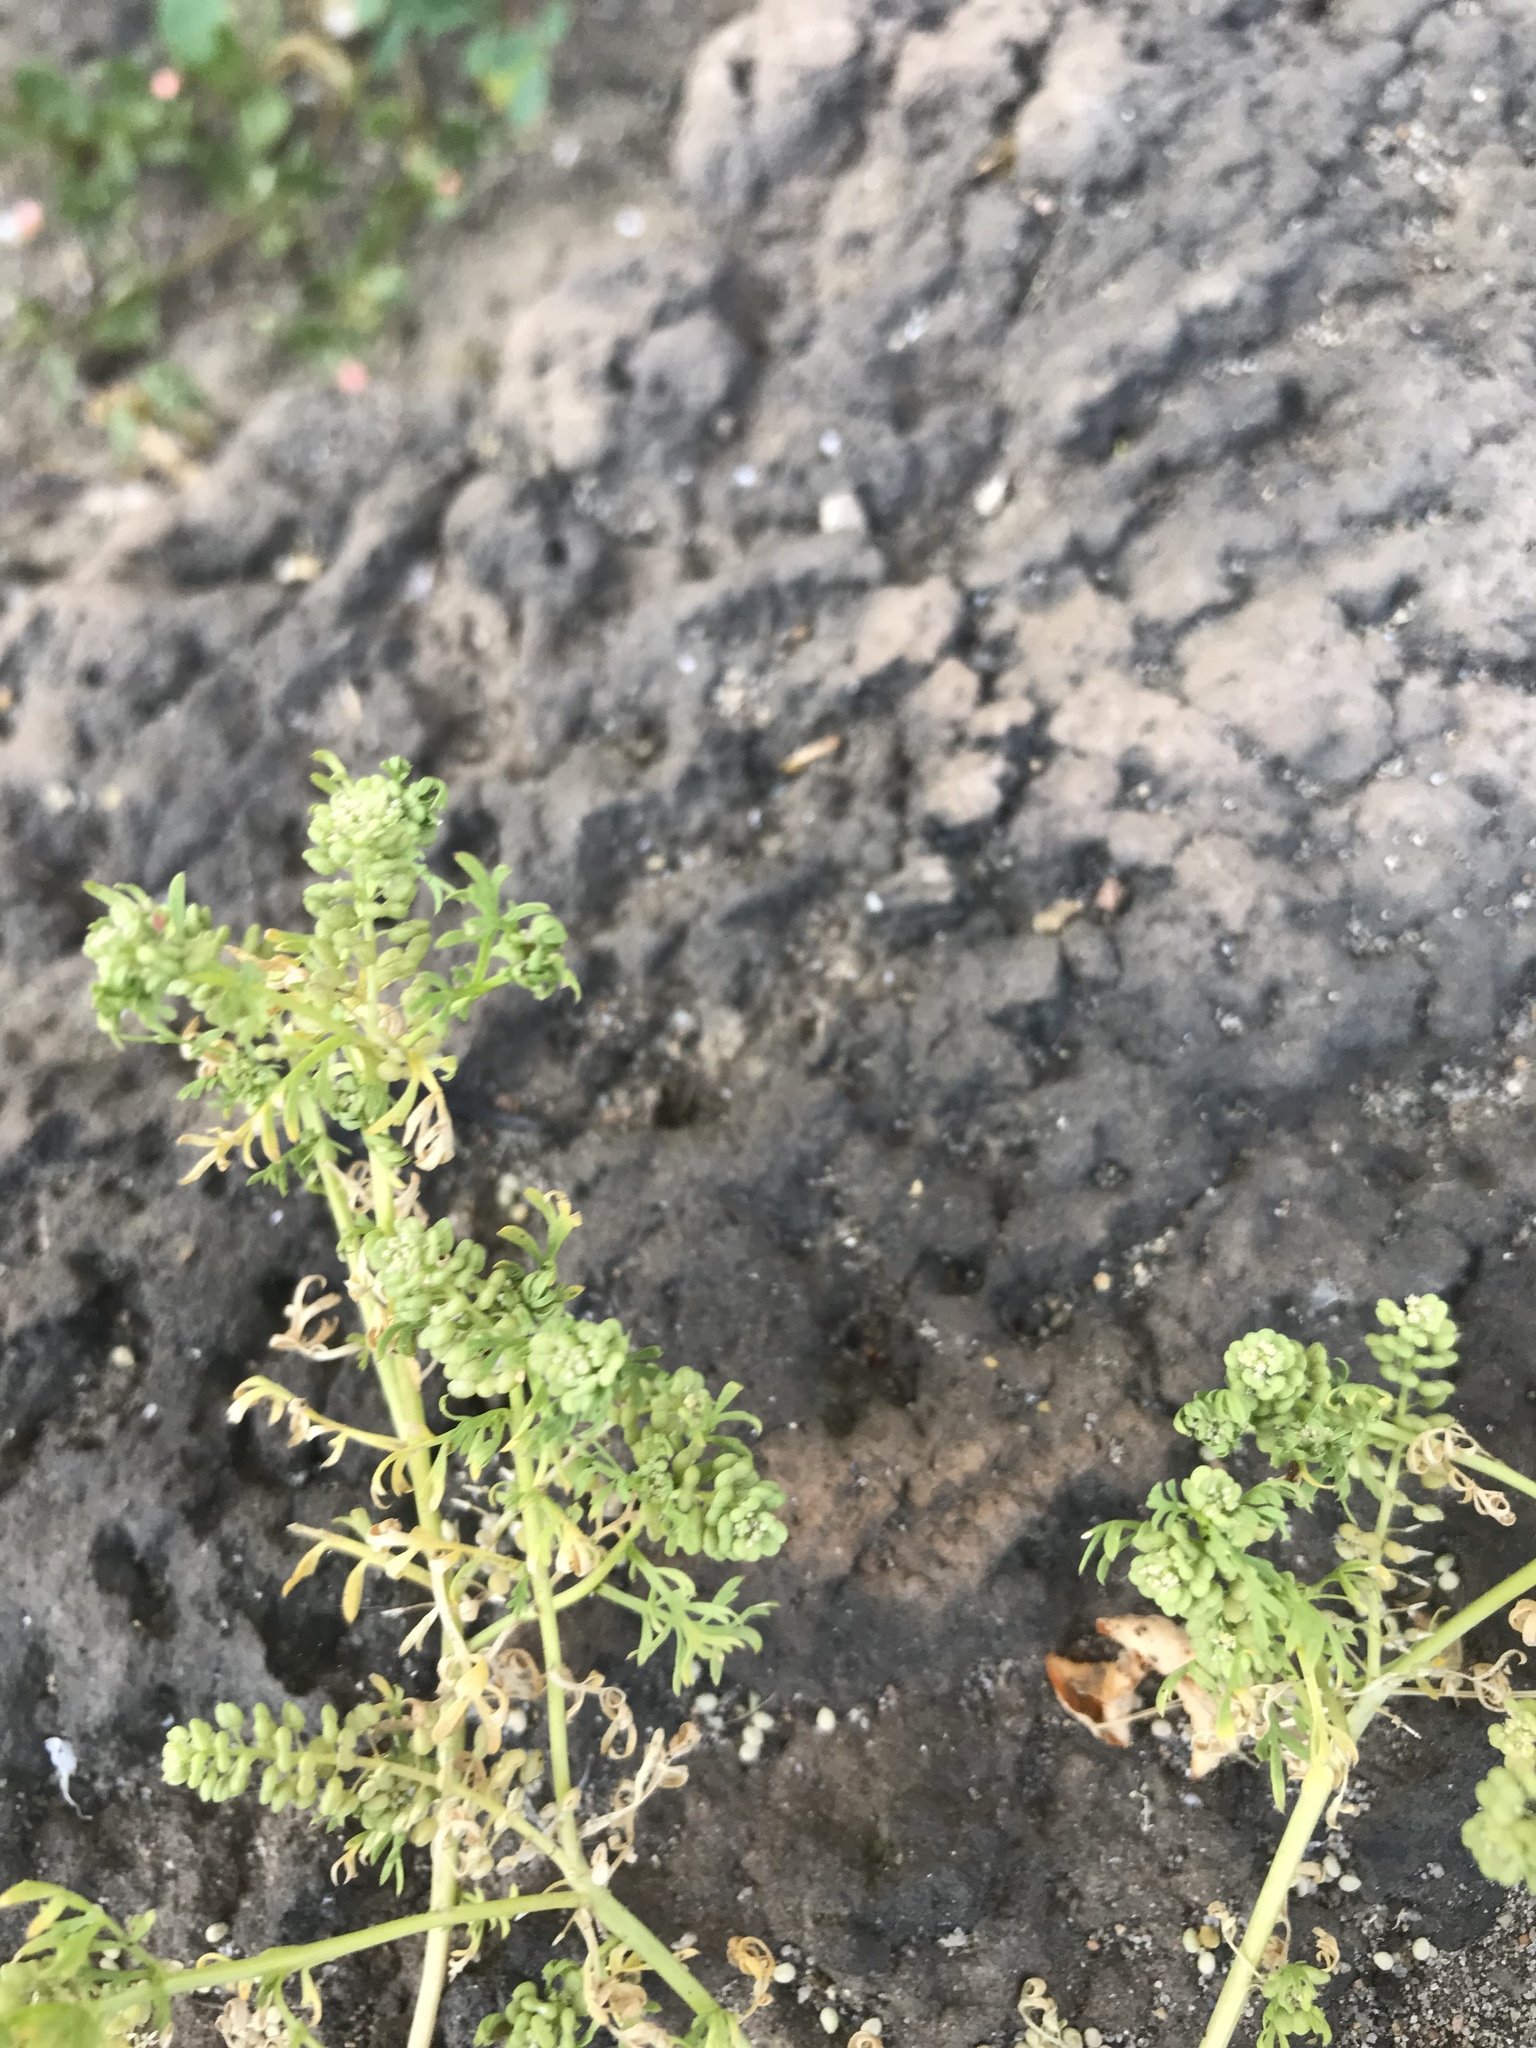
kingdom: Plantae
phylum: Tracheophyta
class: Magnoliopsida
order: Brassicales
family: Brassicaceae
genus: Lepidium
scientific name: Lepidium didymum
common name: Lesser swinecress
